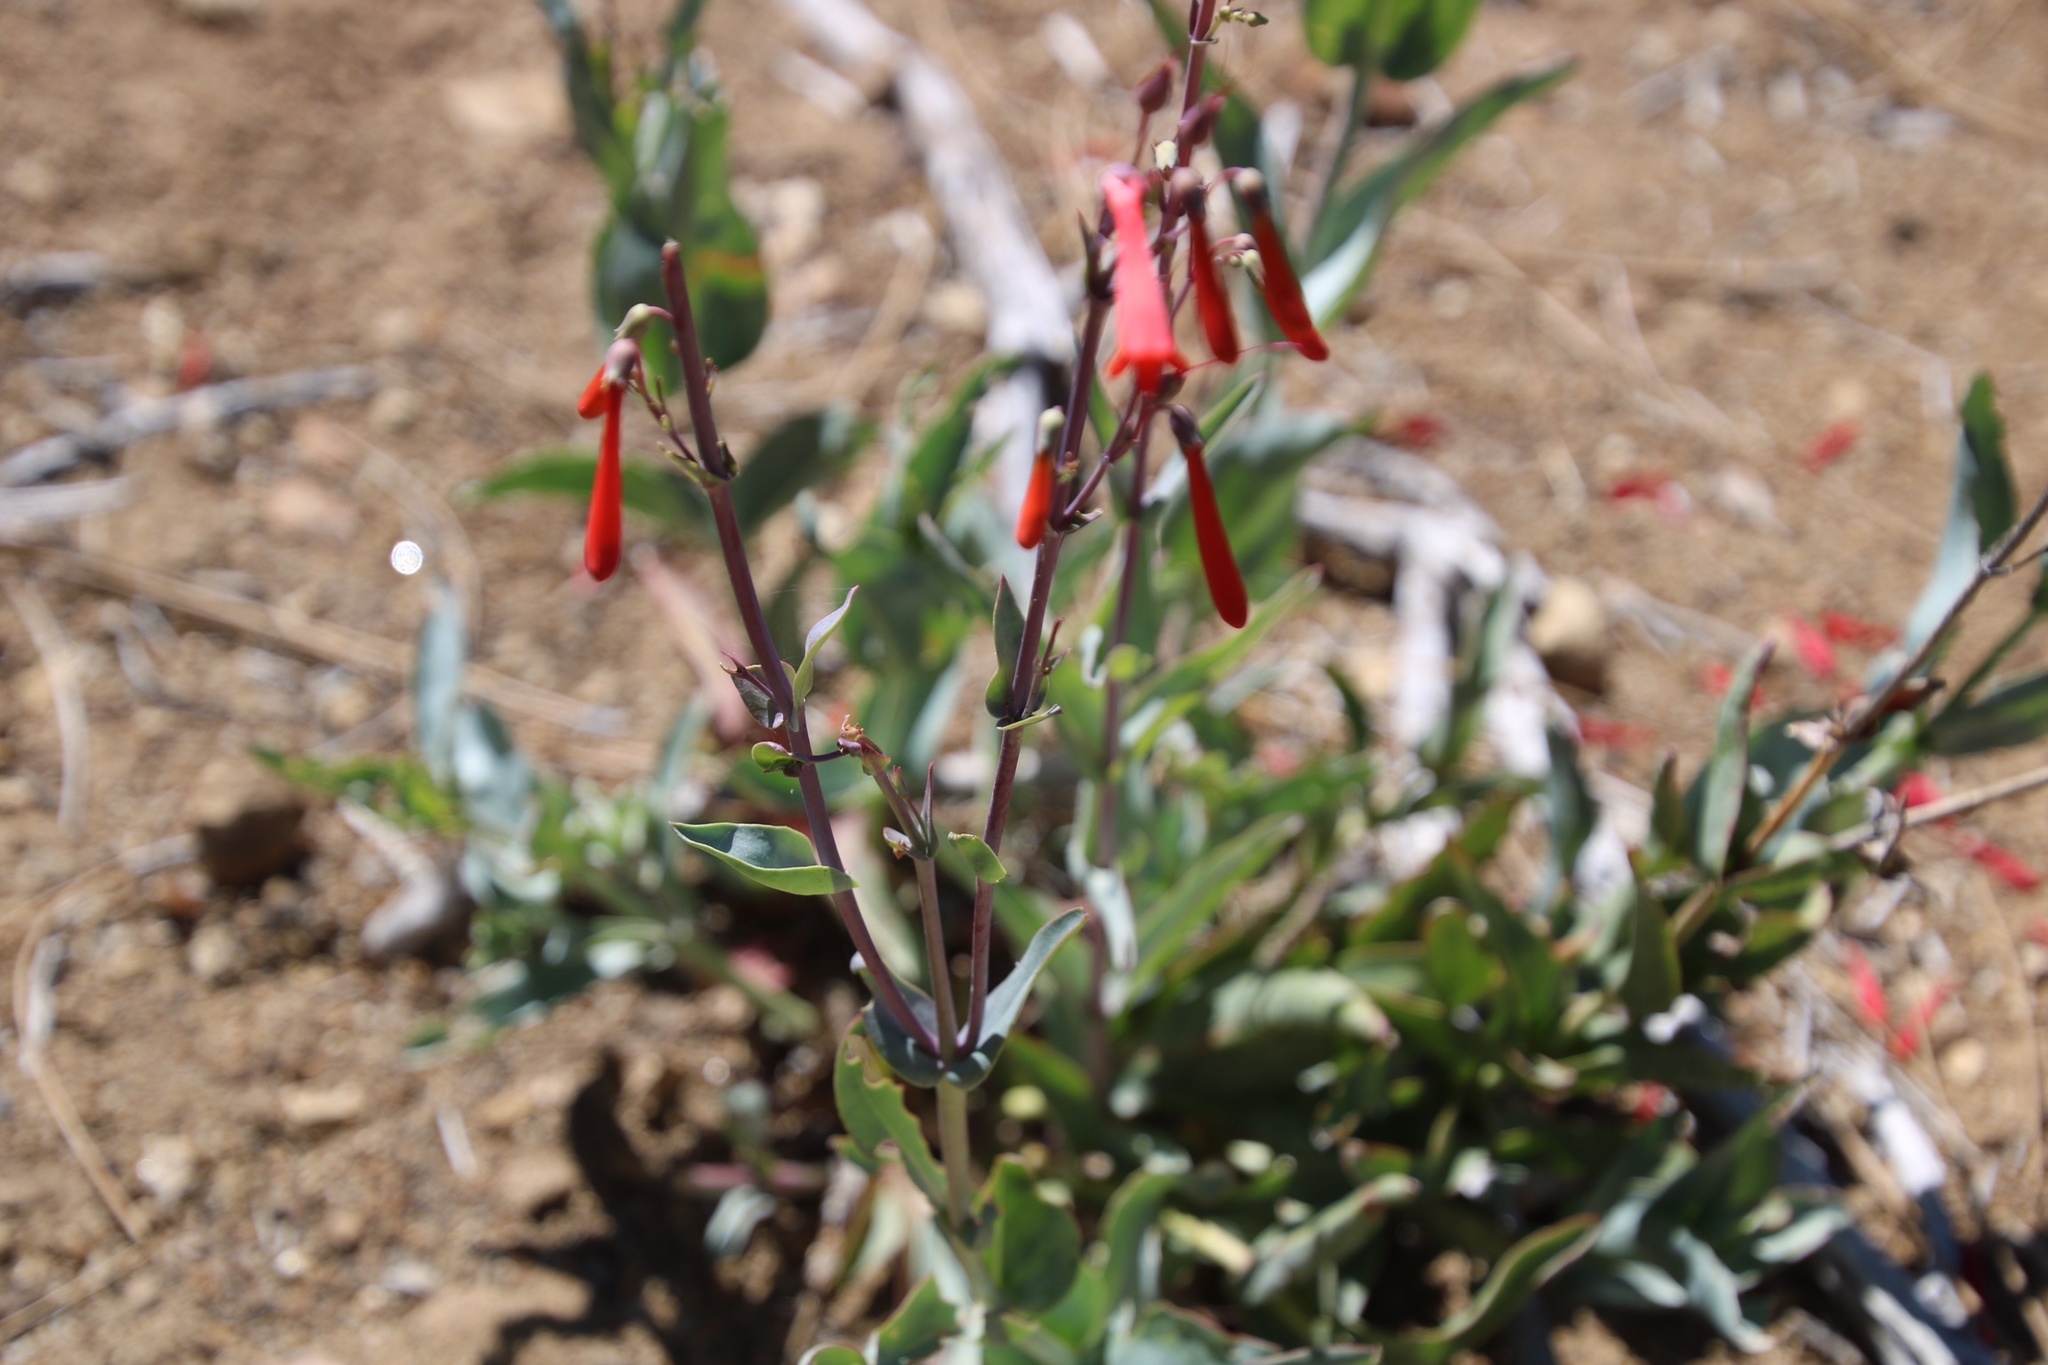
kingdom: Plantae
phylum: Tracheophyta
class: Magnoliopsida
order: Lamiales
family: Plantaginaceae
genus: Penstemon
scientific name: Penstemon centranthifolius
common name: Scarlet bugler
